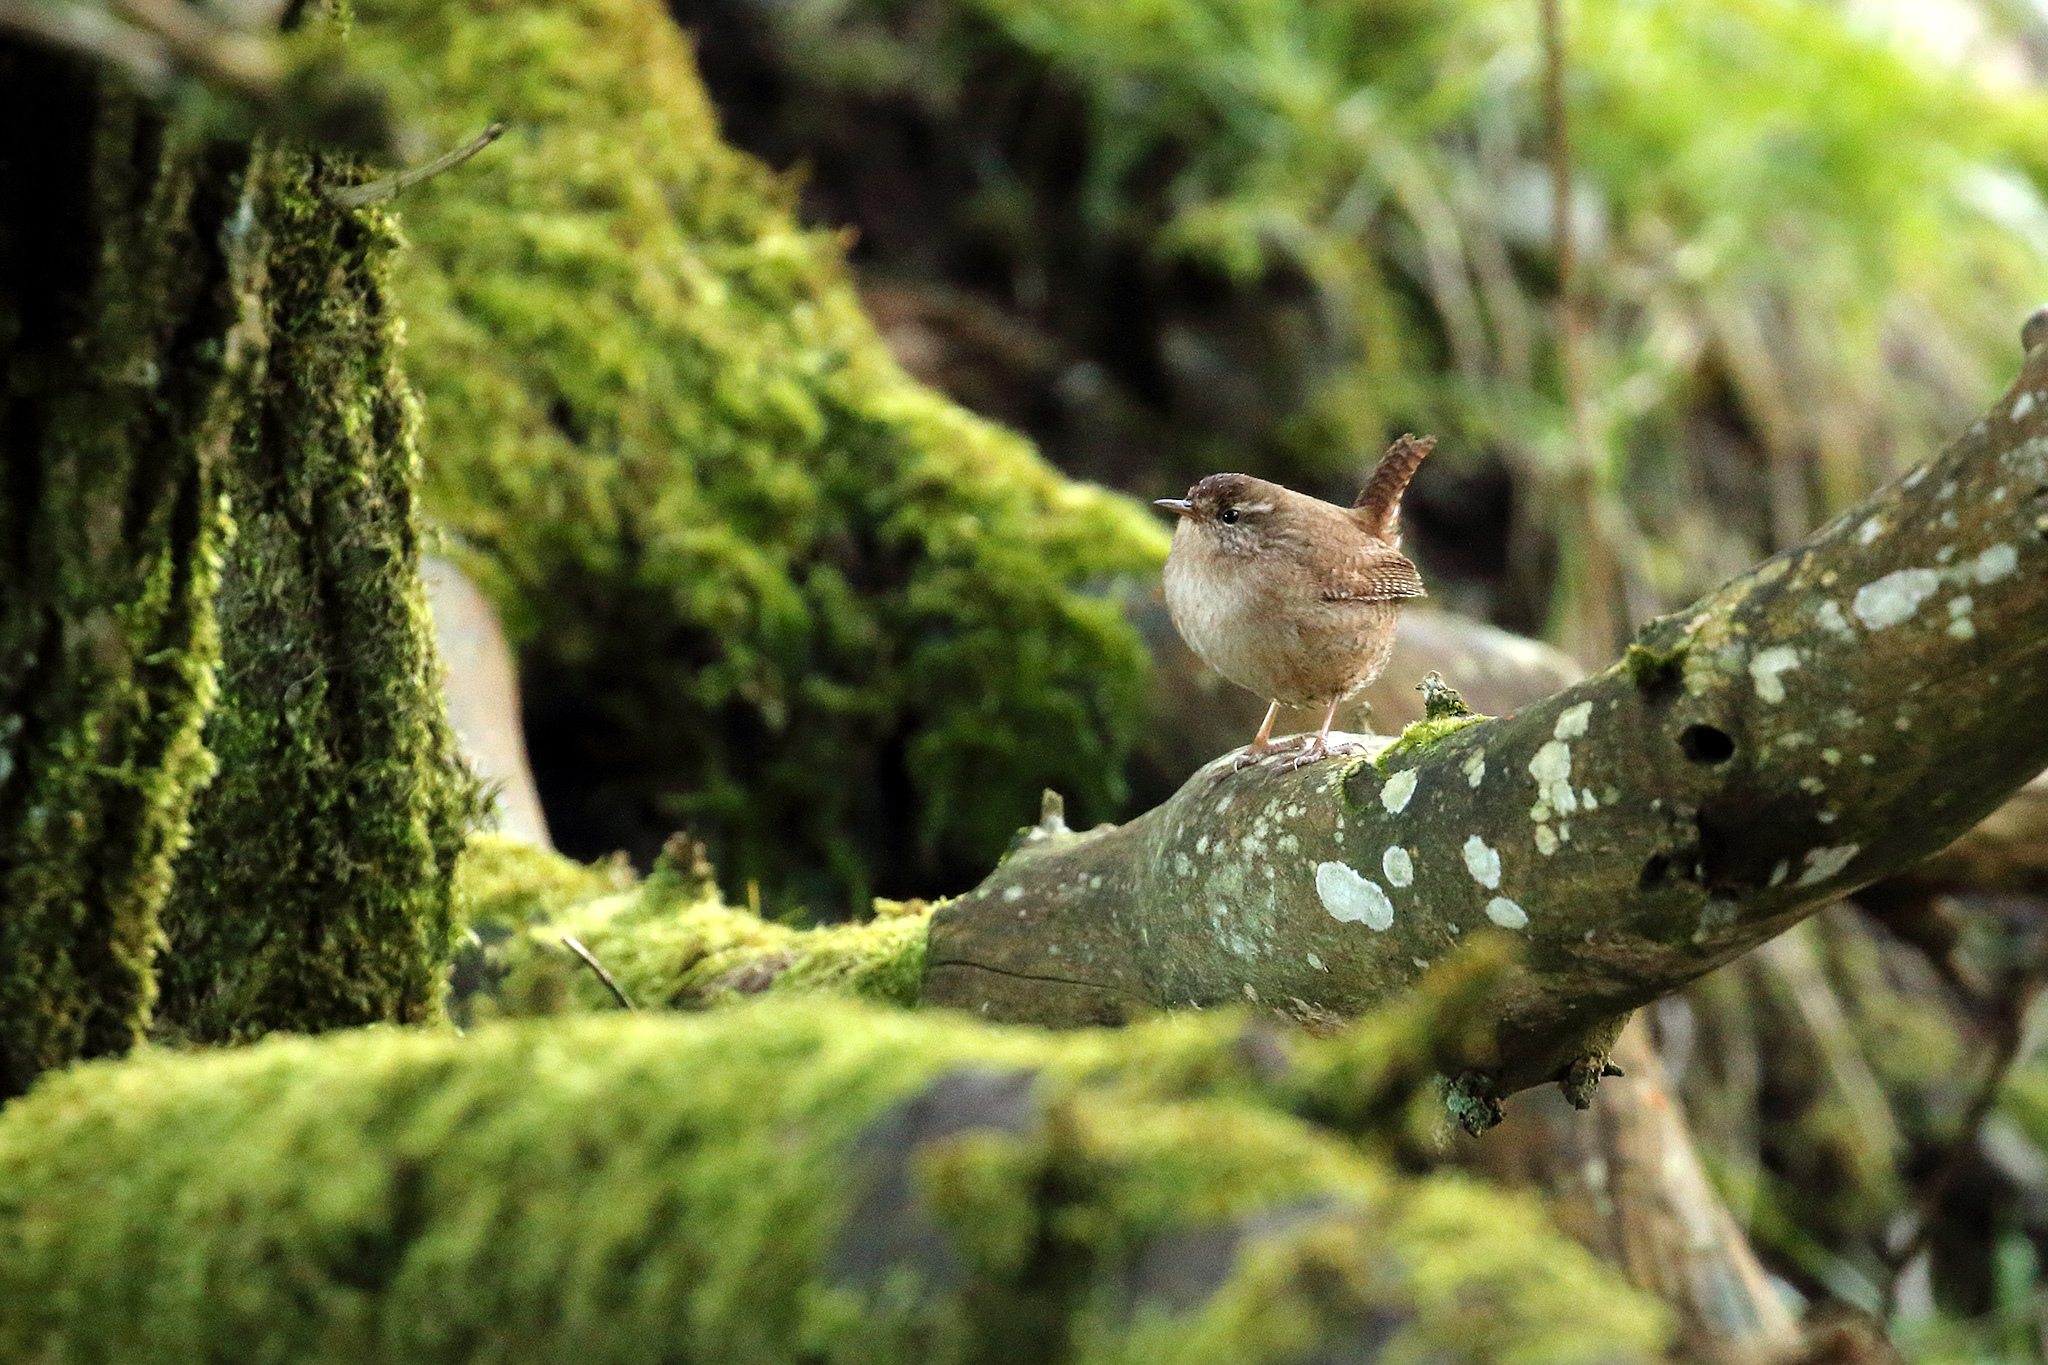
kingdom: Animalia
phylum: Chordata
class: Aves
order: Passeriformes
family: Troglodytidae
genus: Troglodytes
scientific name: Troglodytes troglodytes
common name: Eurasian wren
